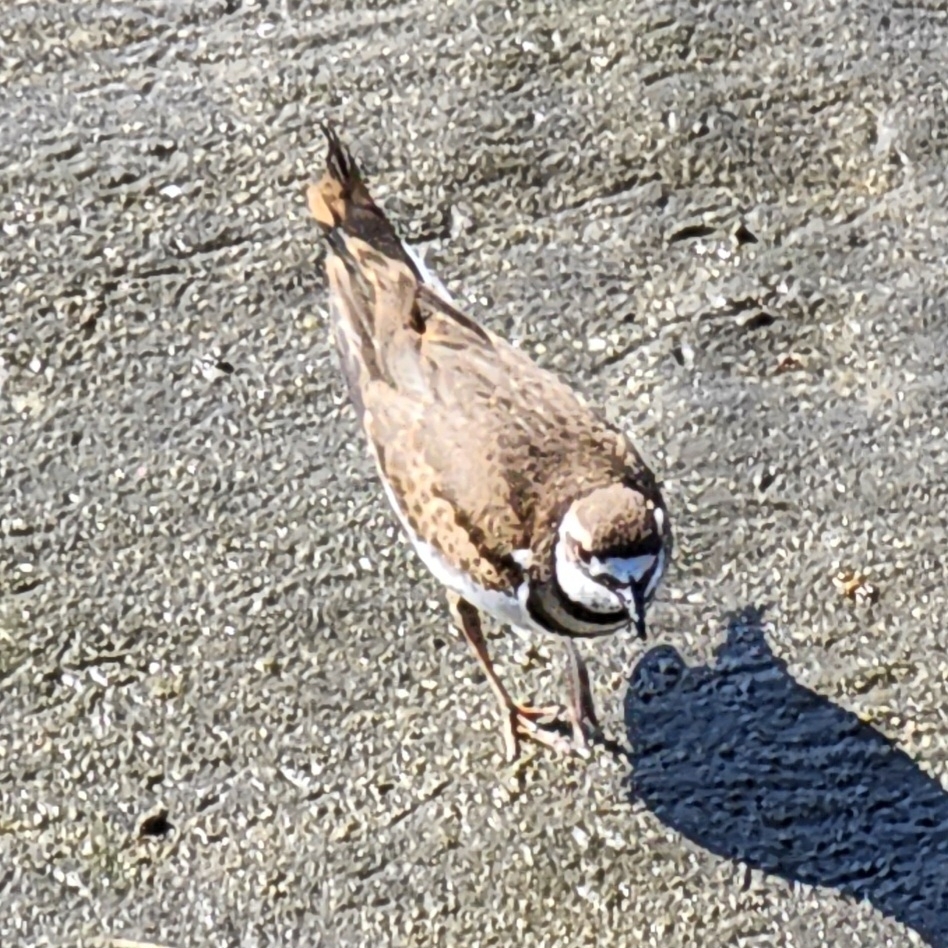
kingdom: Animalia
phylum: Chordata
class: Aves
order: Charadriiformes
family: Charadriidae
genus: Charadrius
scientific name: Charadrius vociferus
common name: Killdeer
